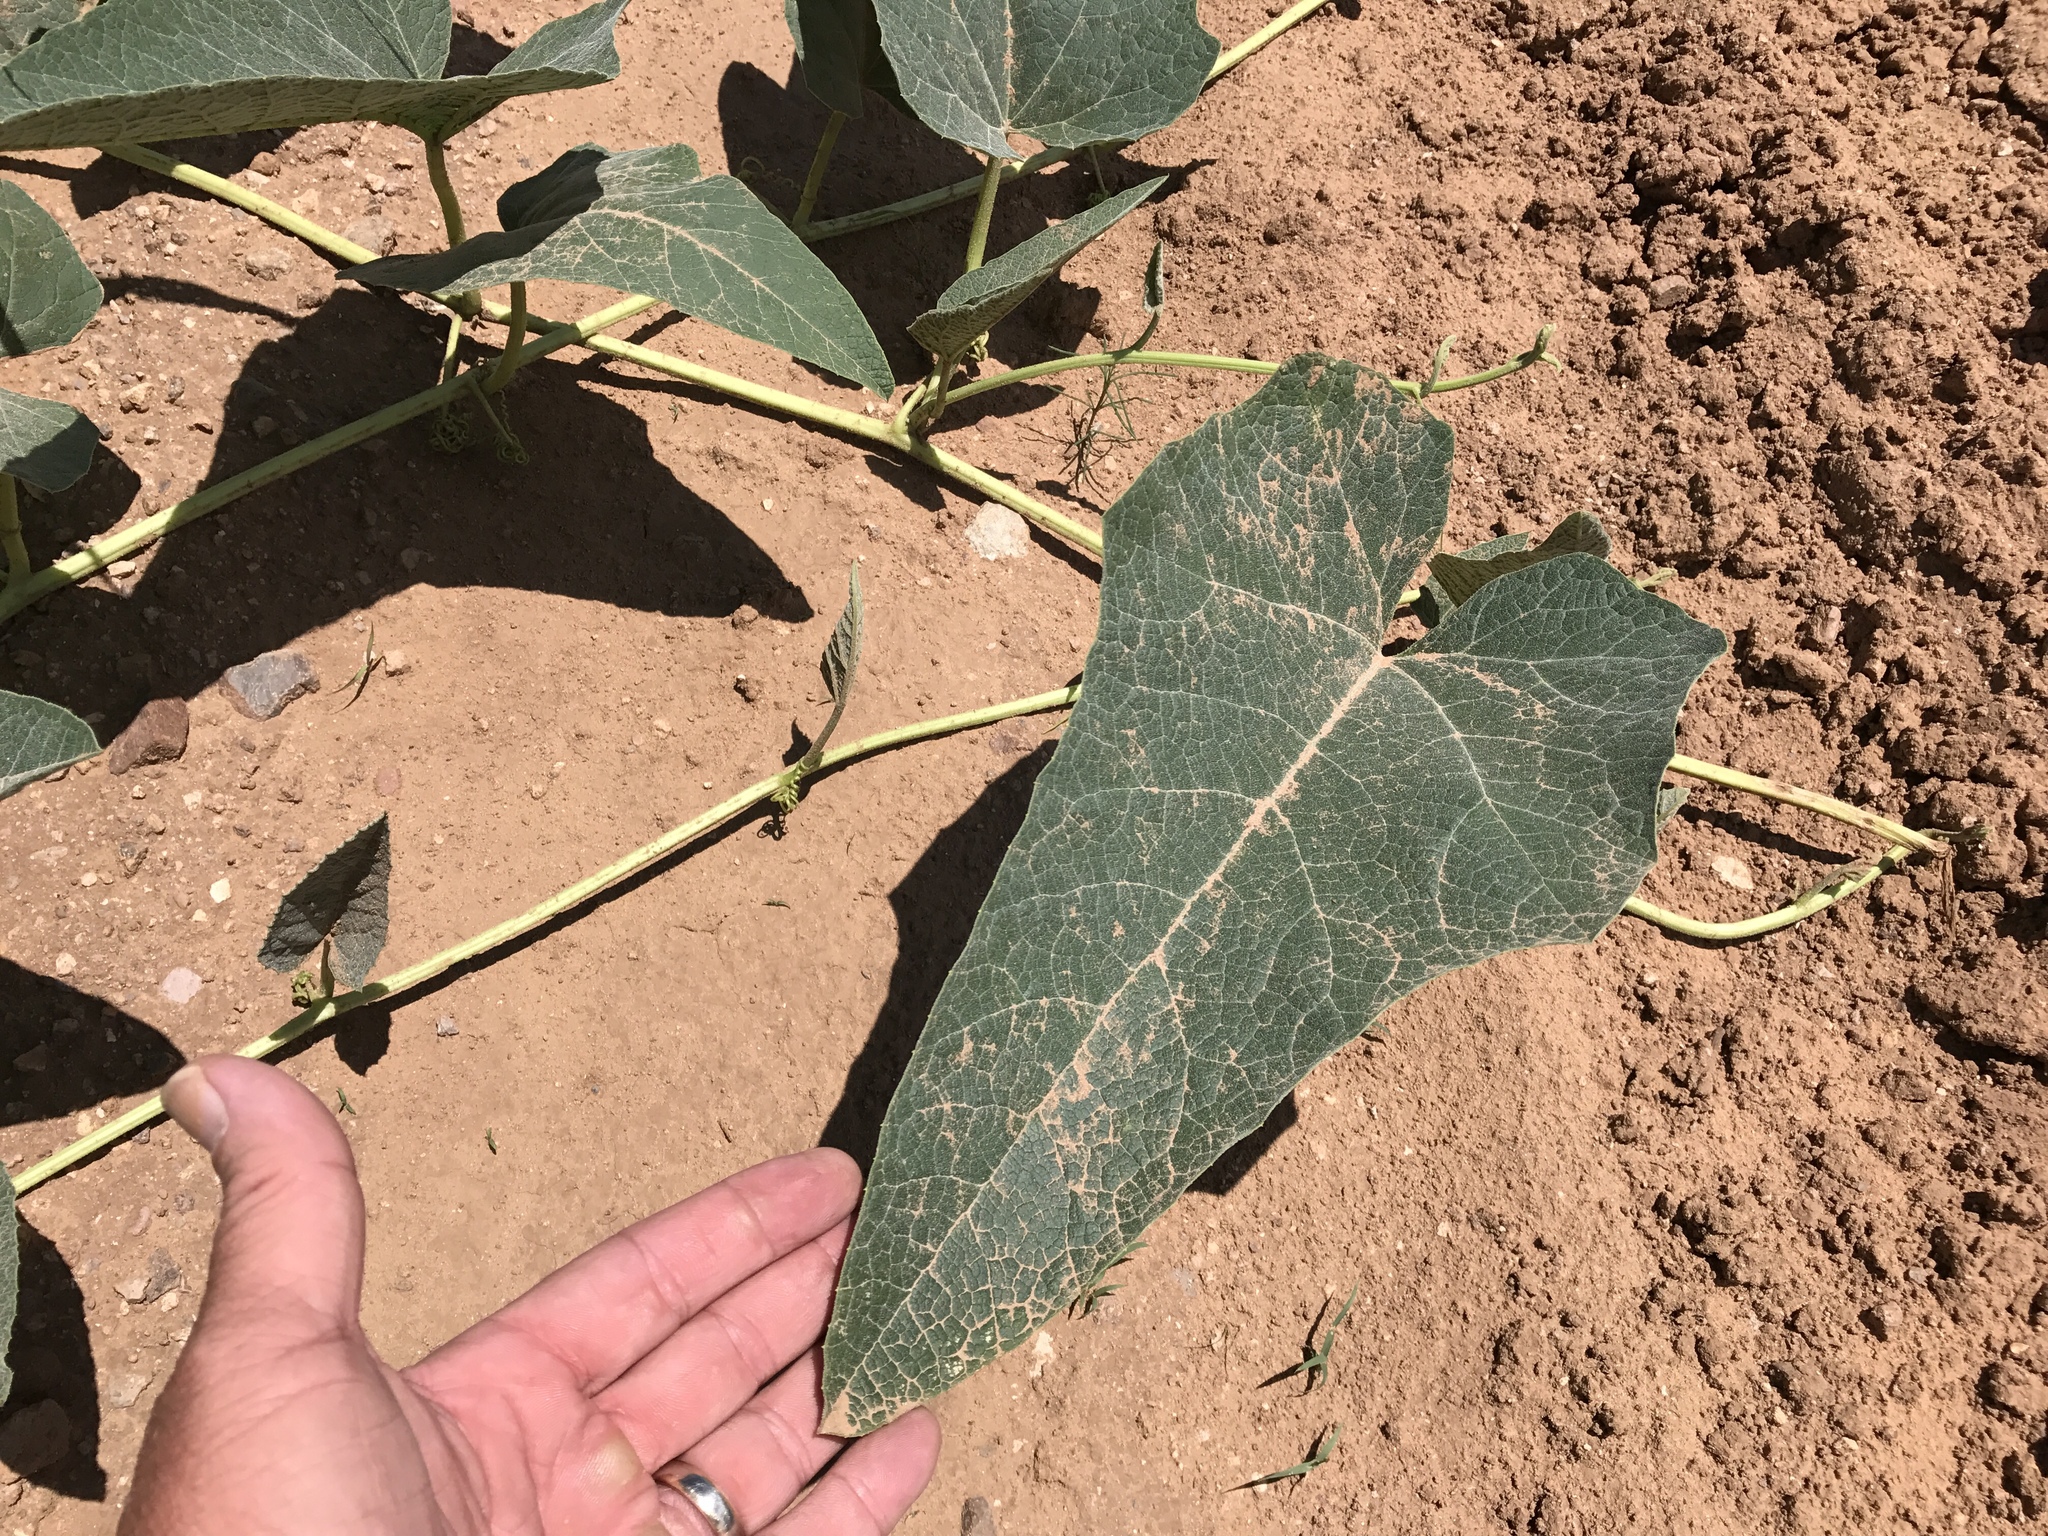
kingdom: Plantae
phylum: Tracheophyta
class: Magnoliopsida
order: Cucurbitales
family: Cucurbitaceae
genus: Cucurbita
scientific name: Cucurbita foetidissima
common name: Buffalo gourd
